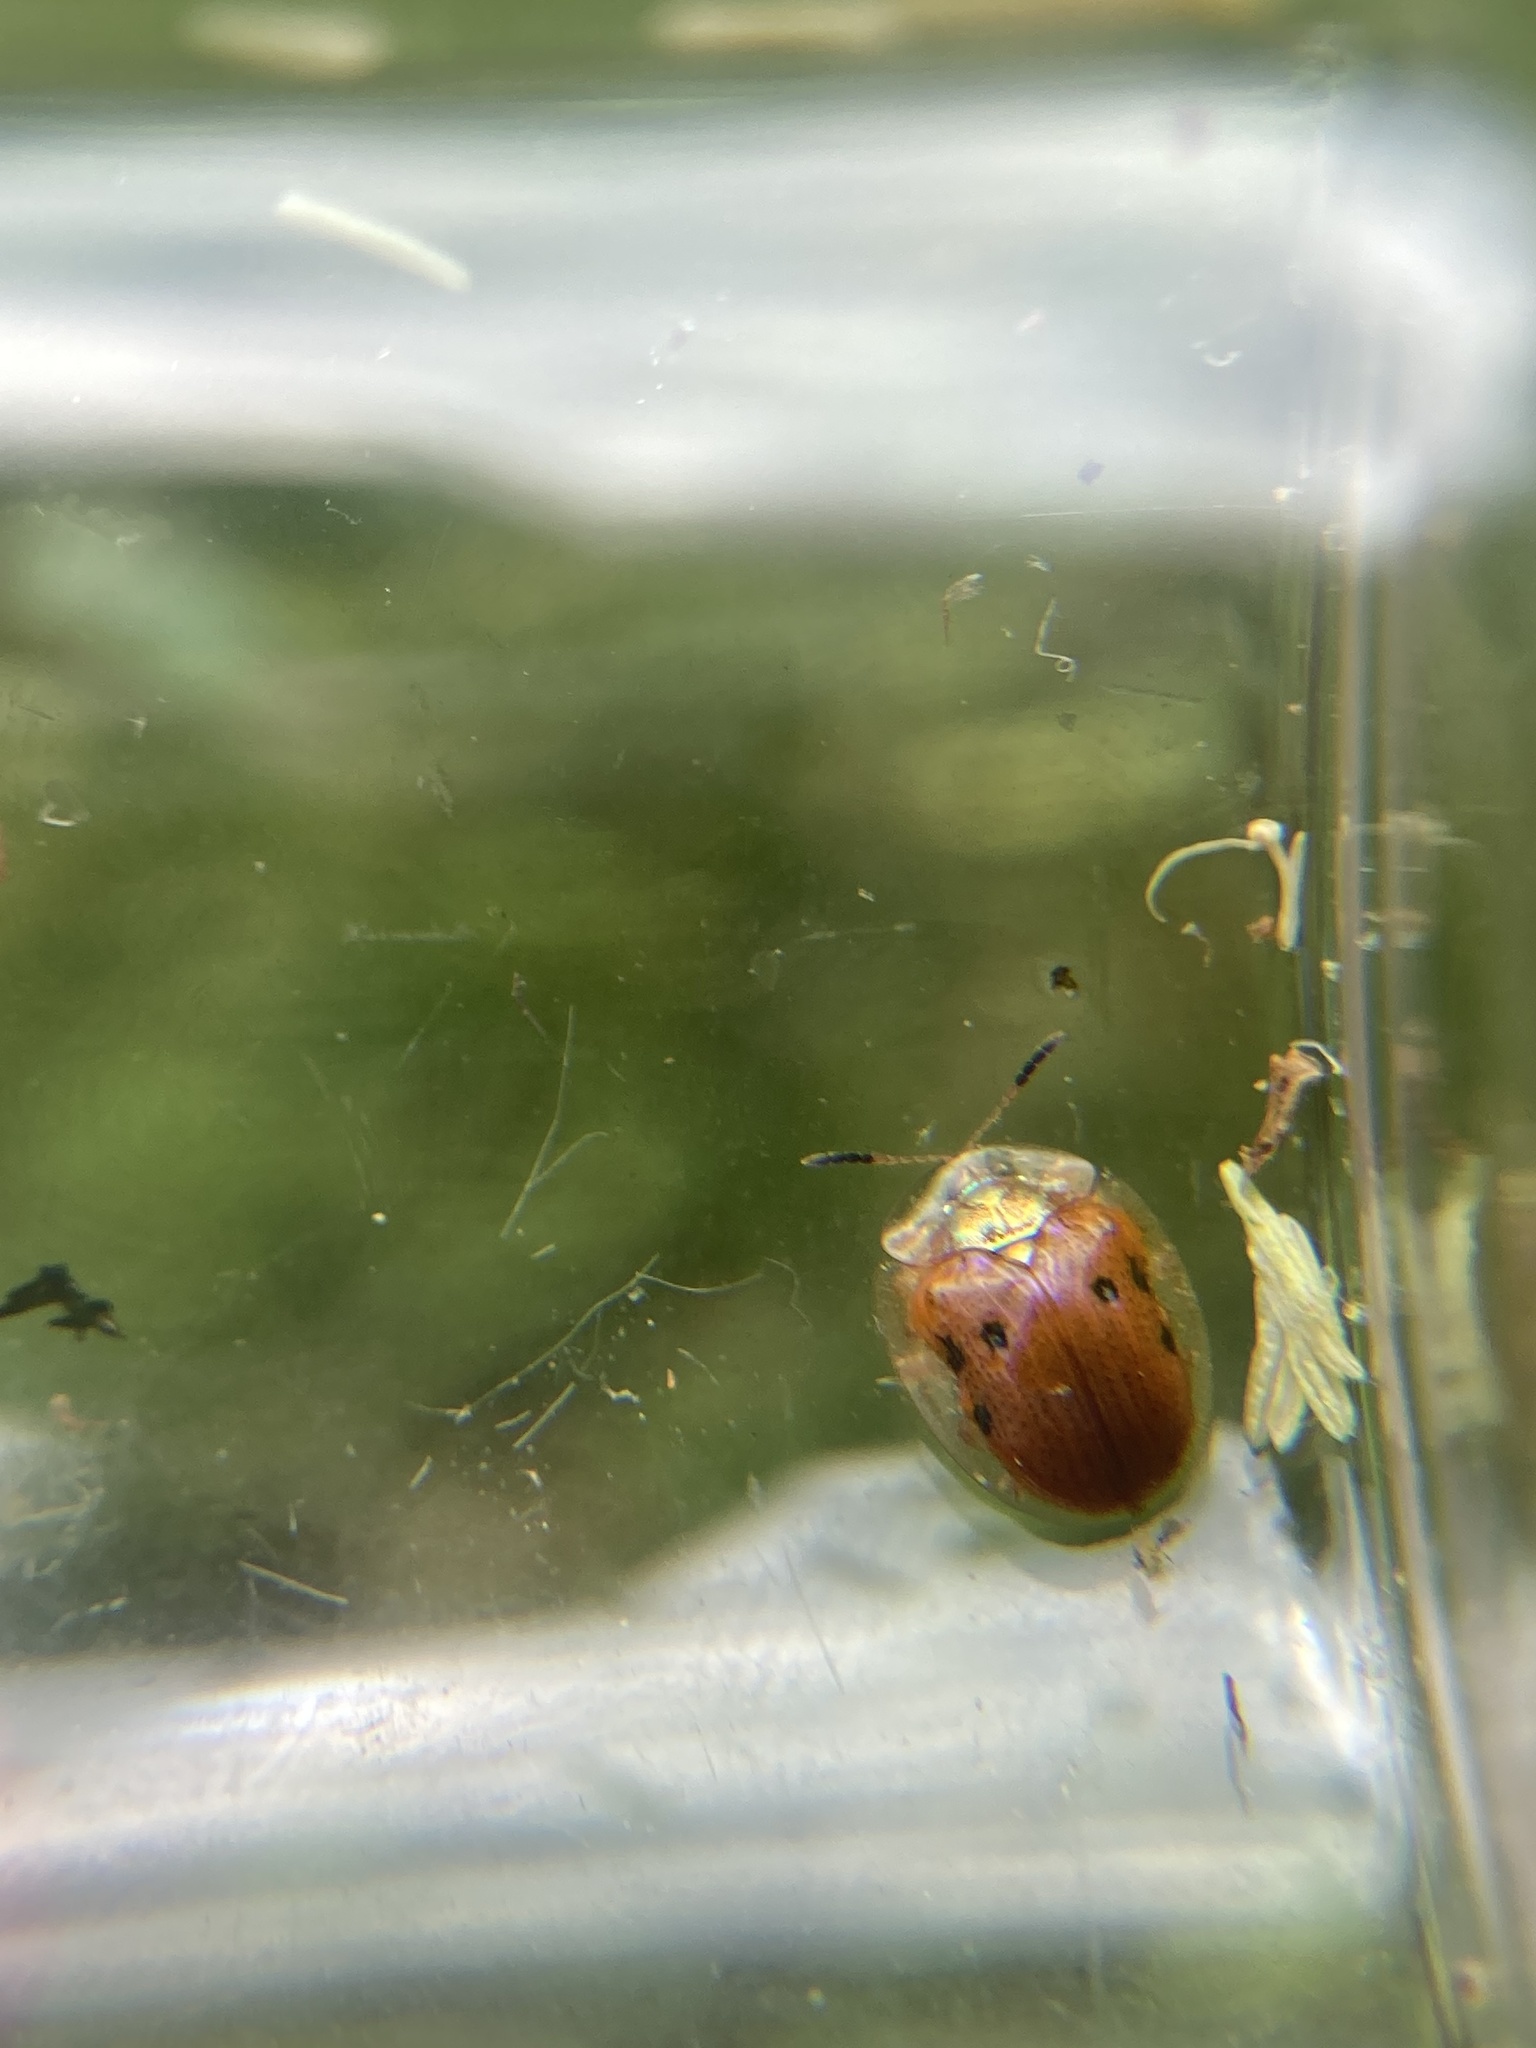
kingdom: Animalia
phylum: Arthropoda
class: Insecta
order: Coleoptera
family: Chrysomelidae
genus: Charidotella
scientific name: Charidotella sexpunctata
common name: Golden tortoise beetle
